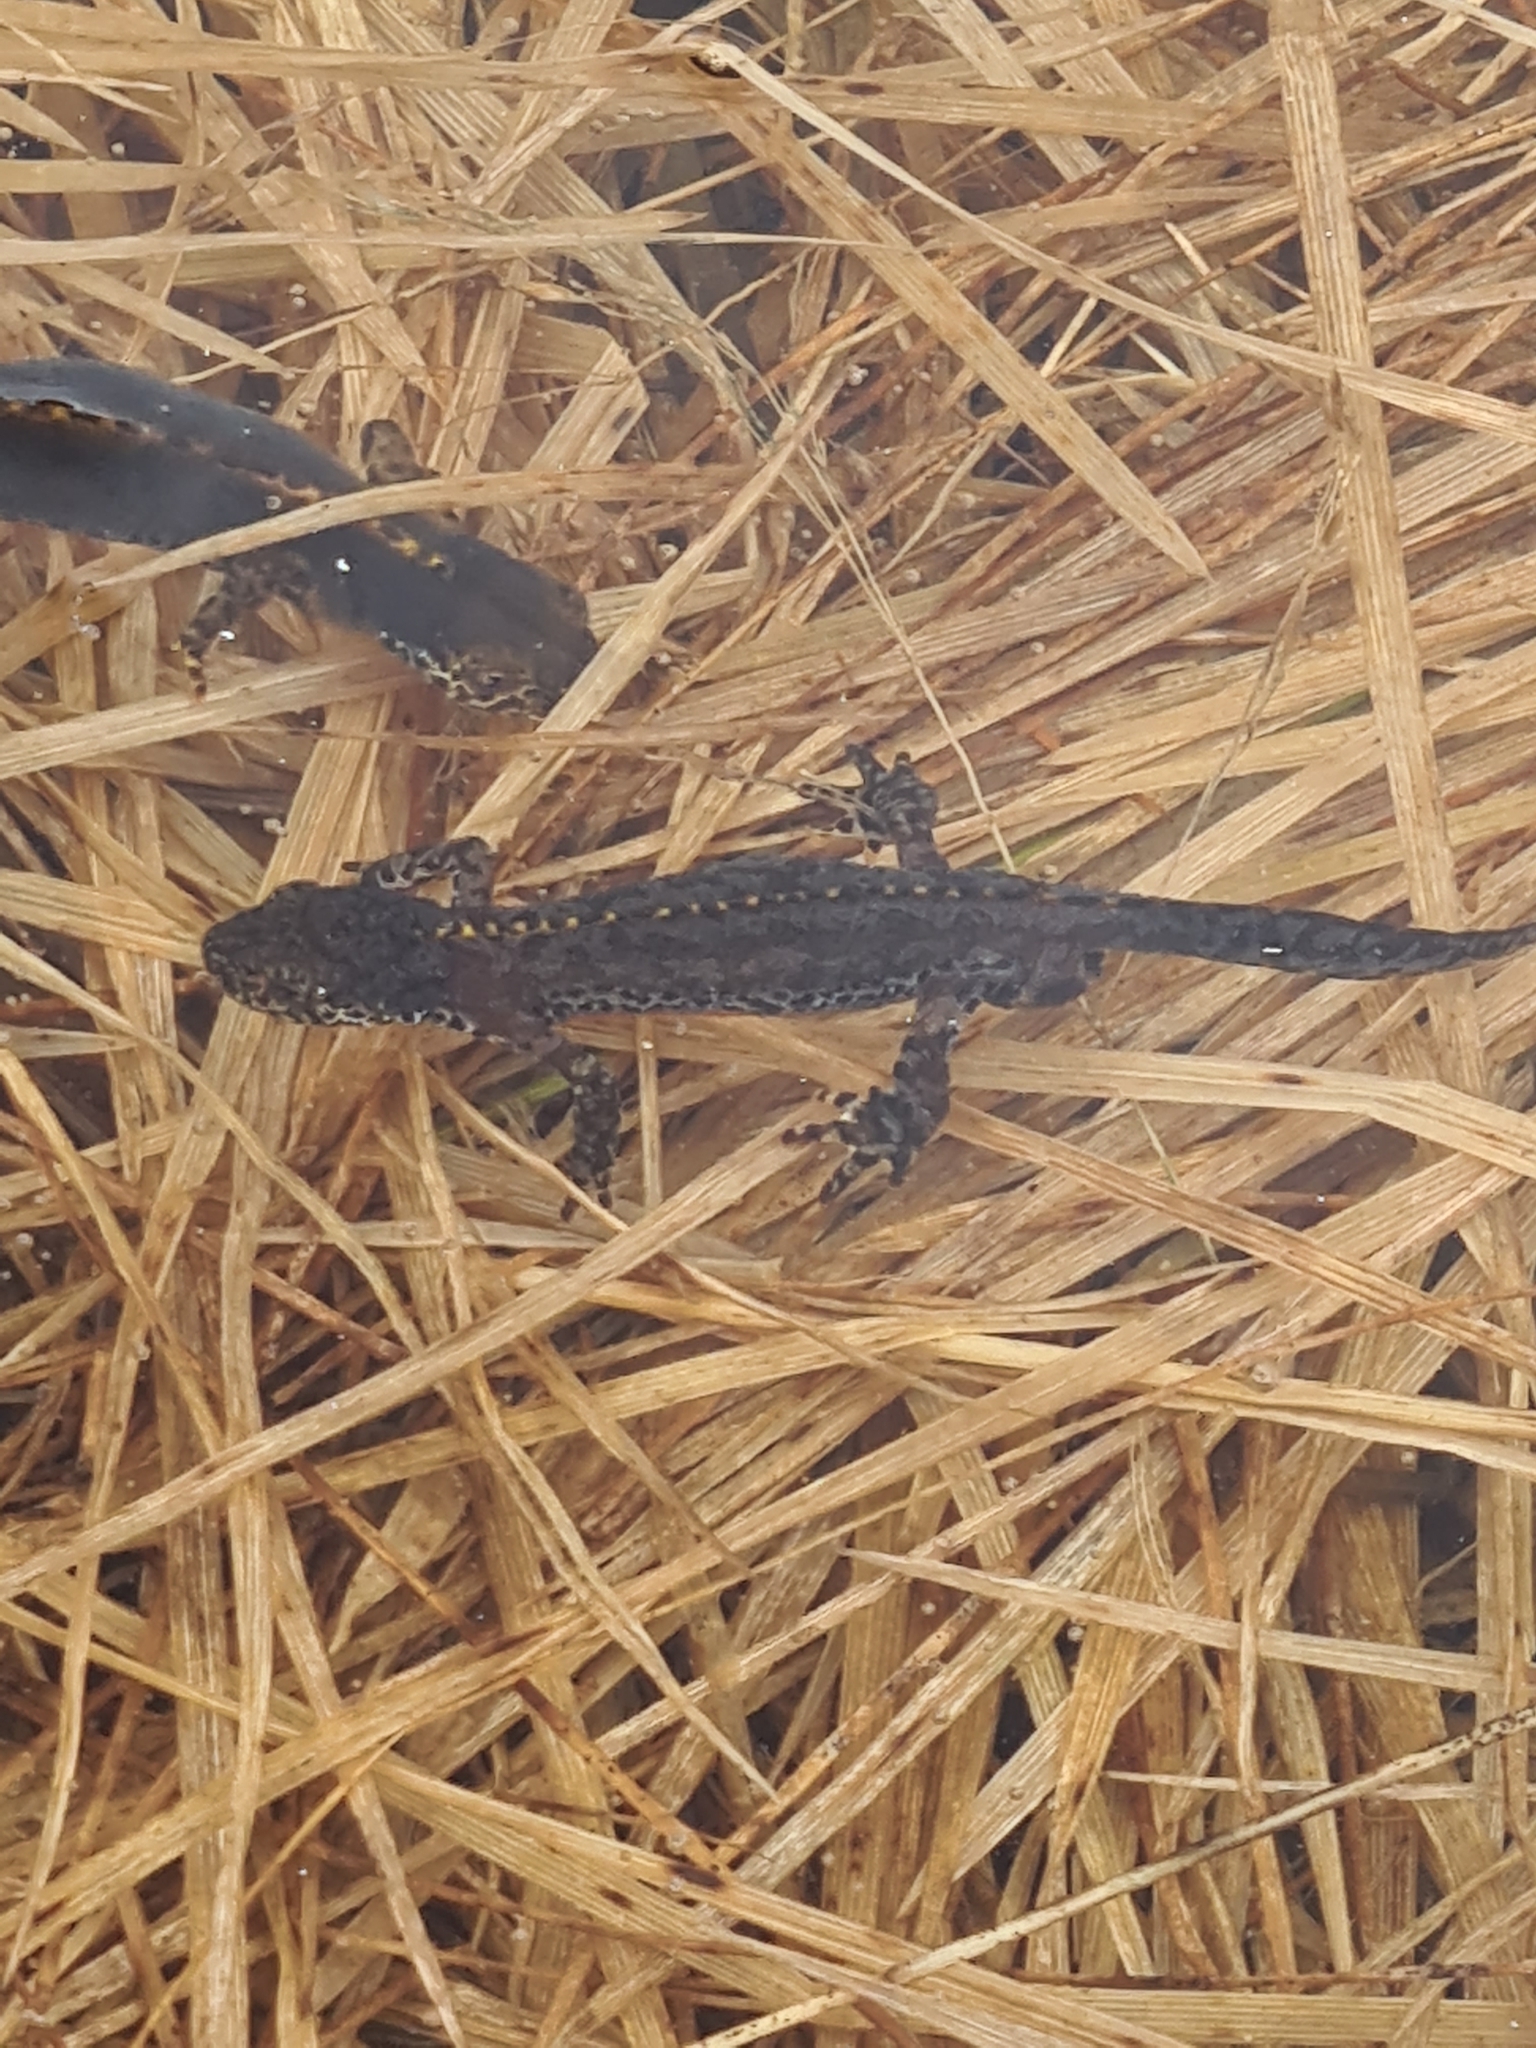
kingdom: Animalia
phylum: Chordata
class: Amphibia
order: Caudata
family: Salamandridae
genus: Ichthyosaura
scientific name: Ichthyosaura alpestris
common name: Alpine newt
